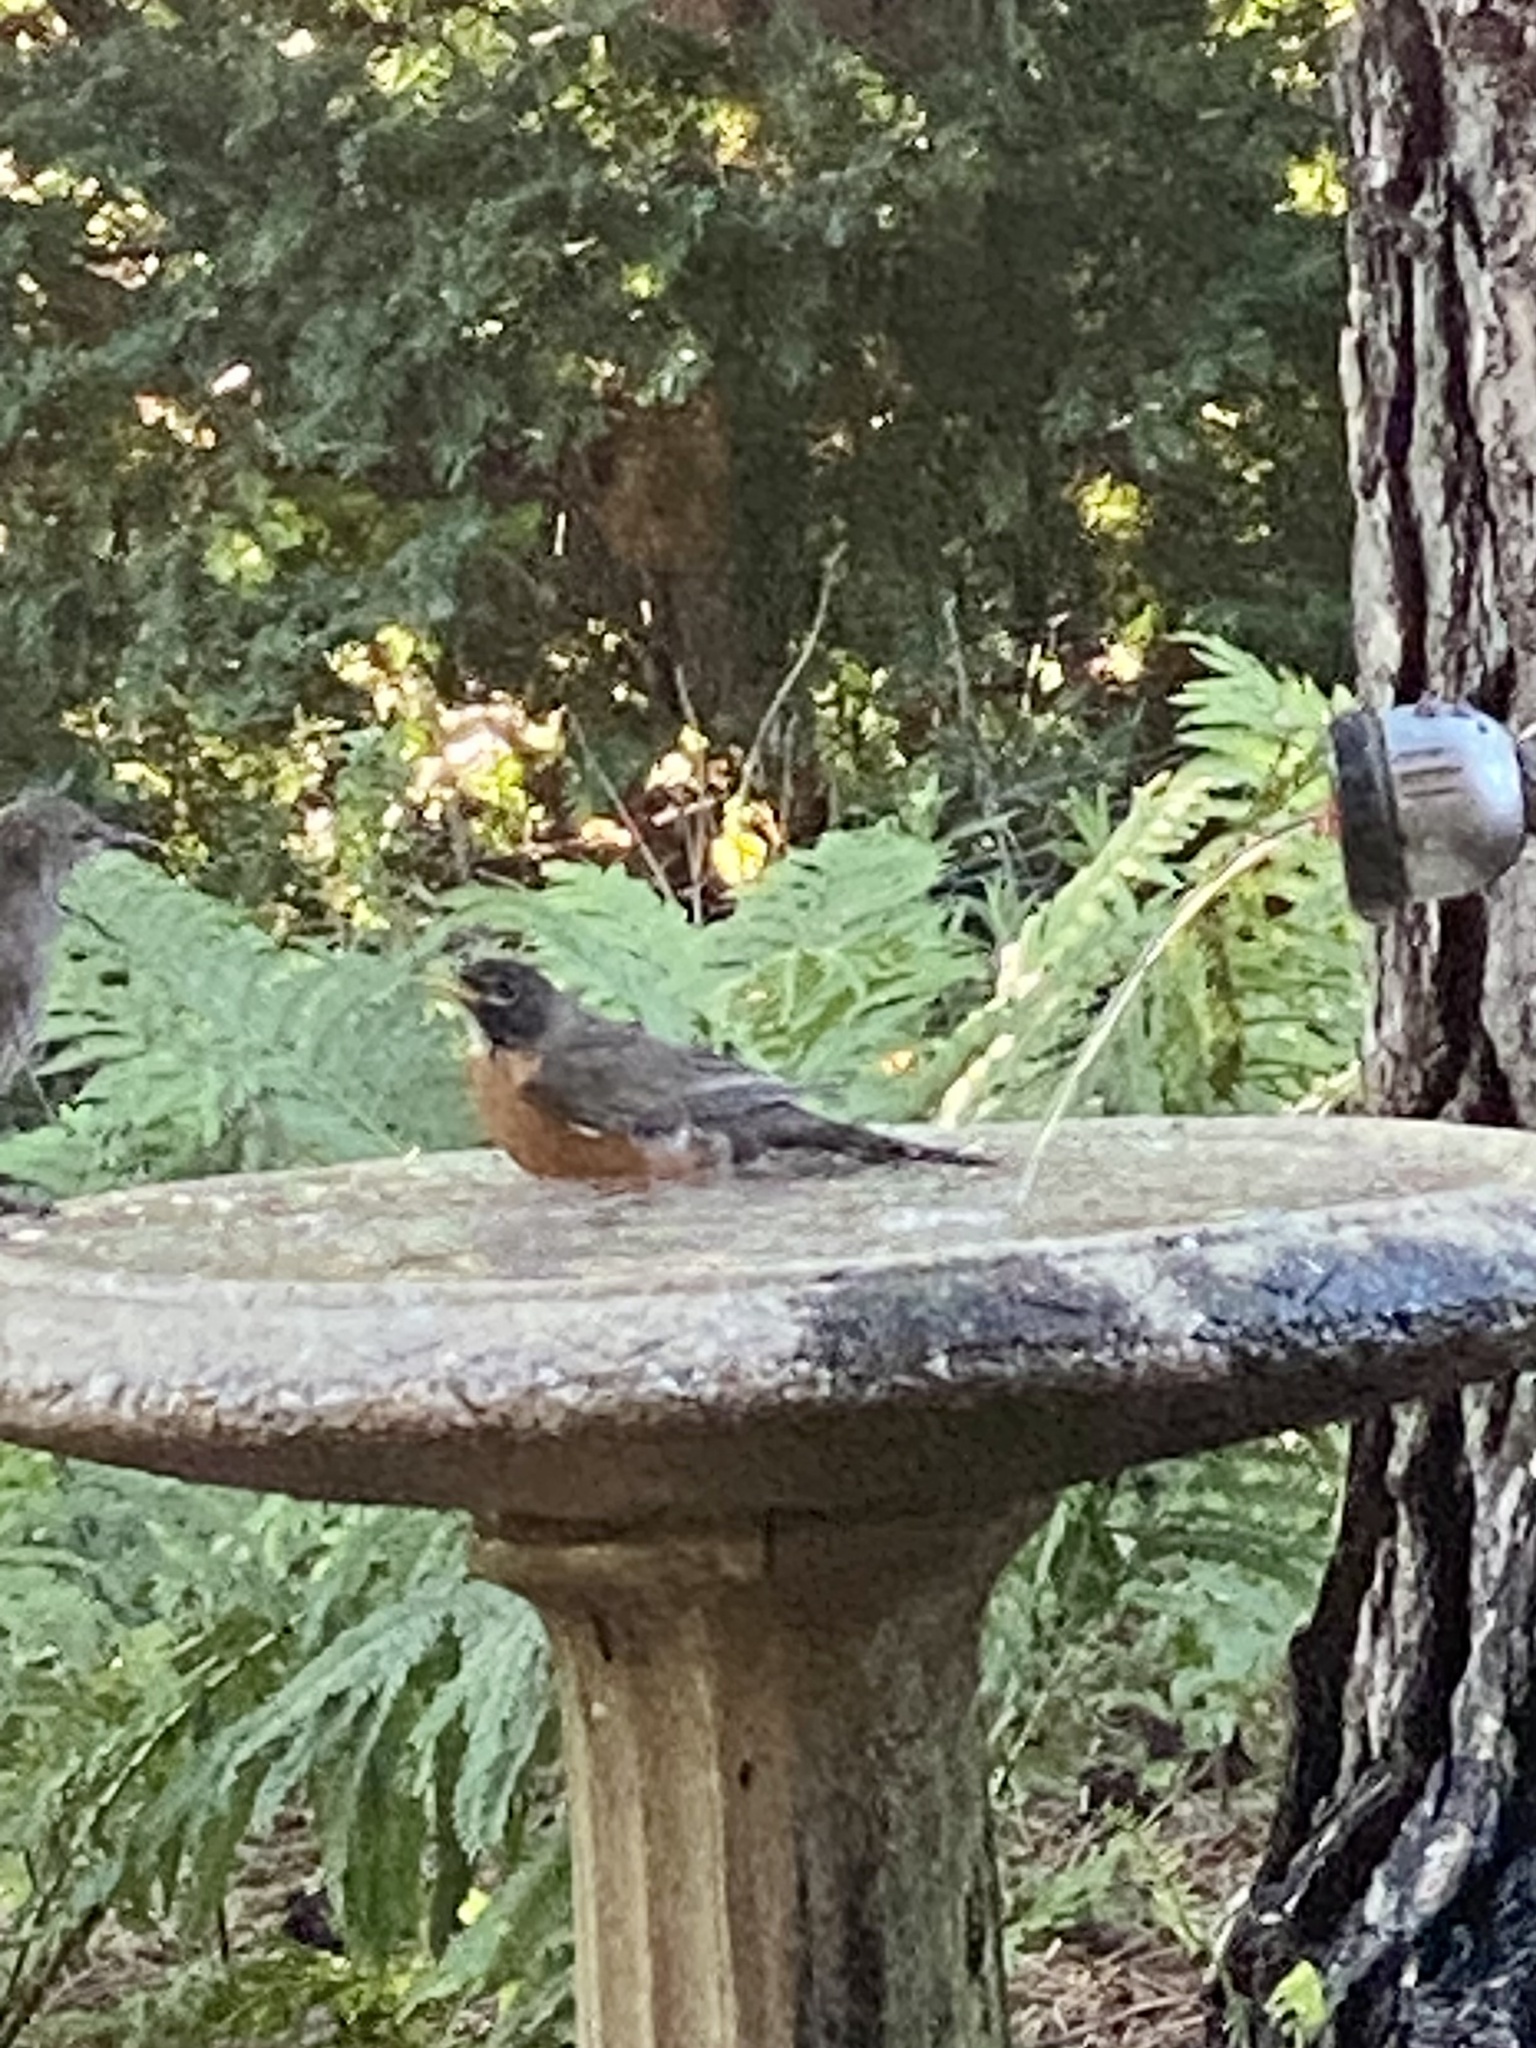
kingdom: Animalia
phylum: Chordata
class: Aves
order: Passeriformes
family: Turdidae
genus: Turdus
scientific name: Turdus migratorius
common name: American robin
